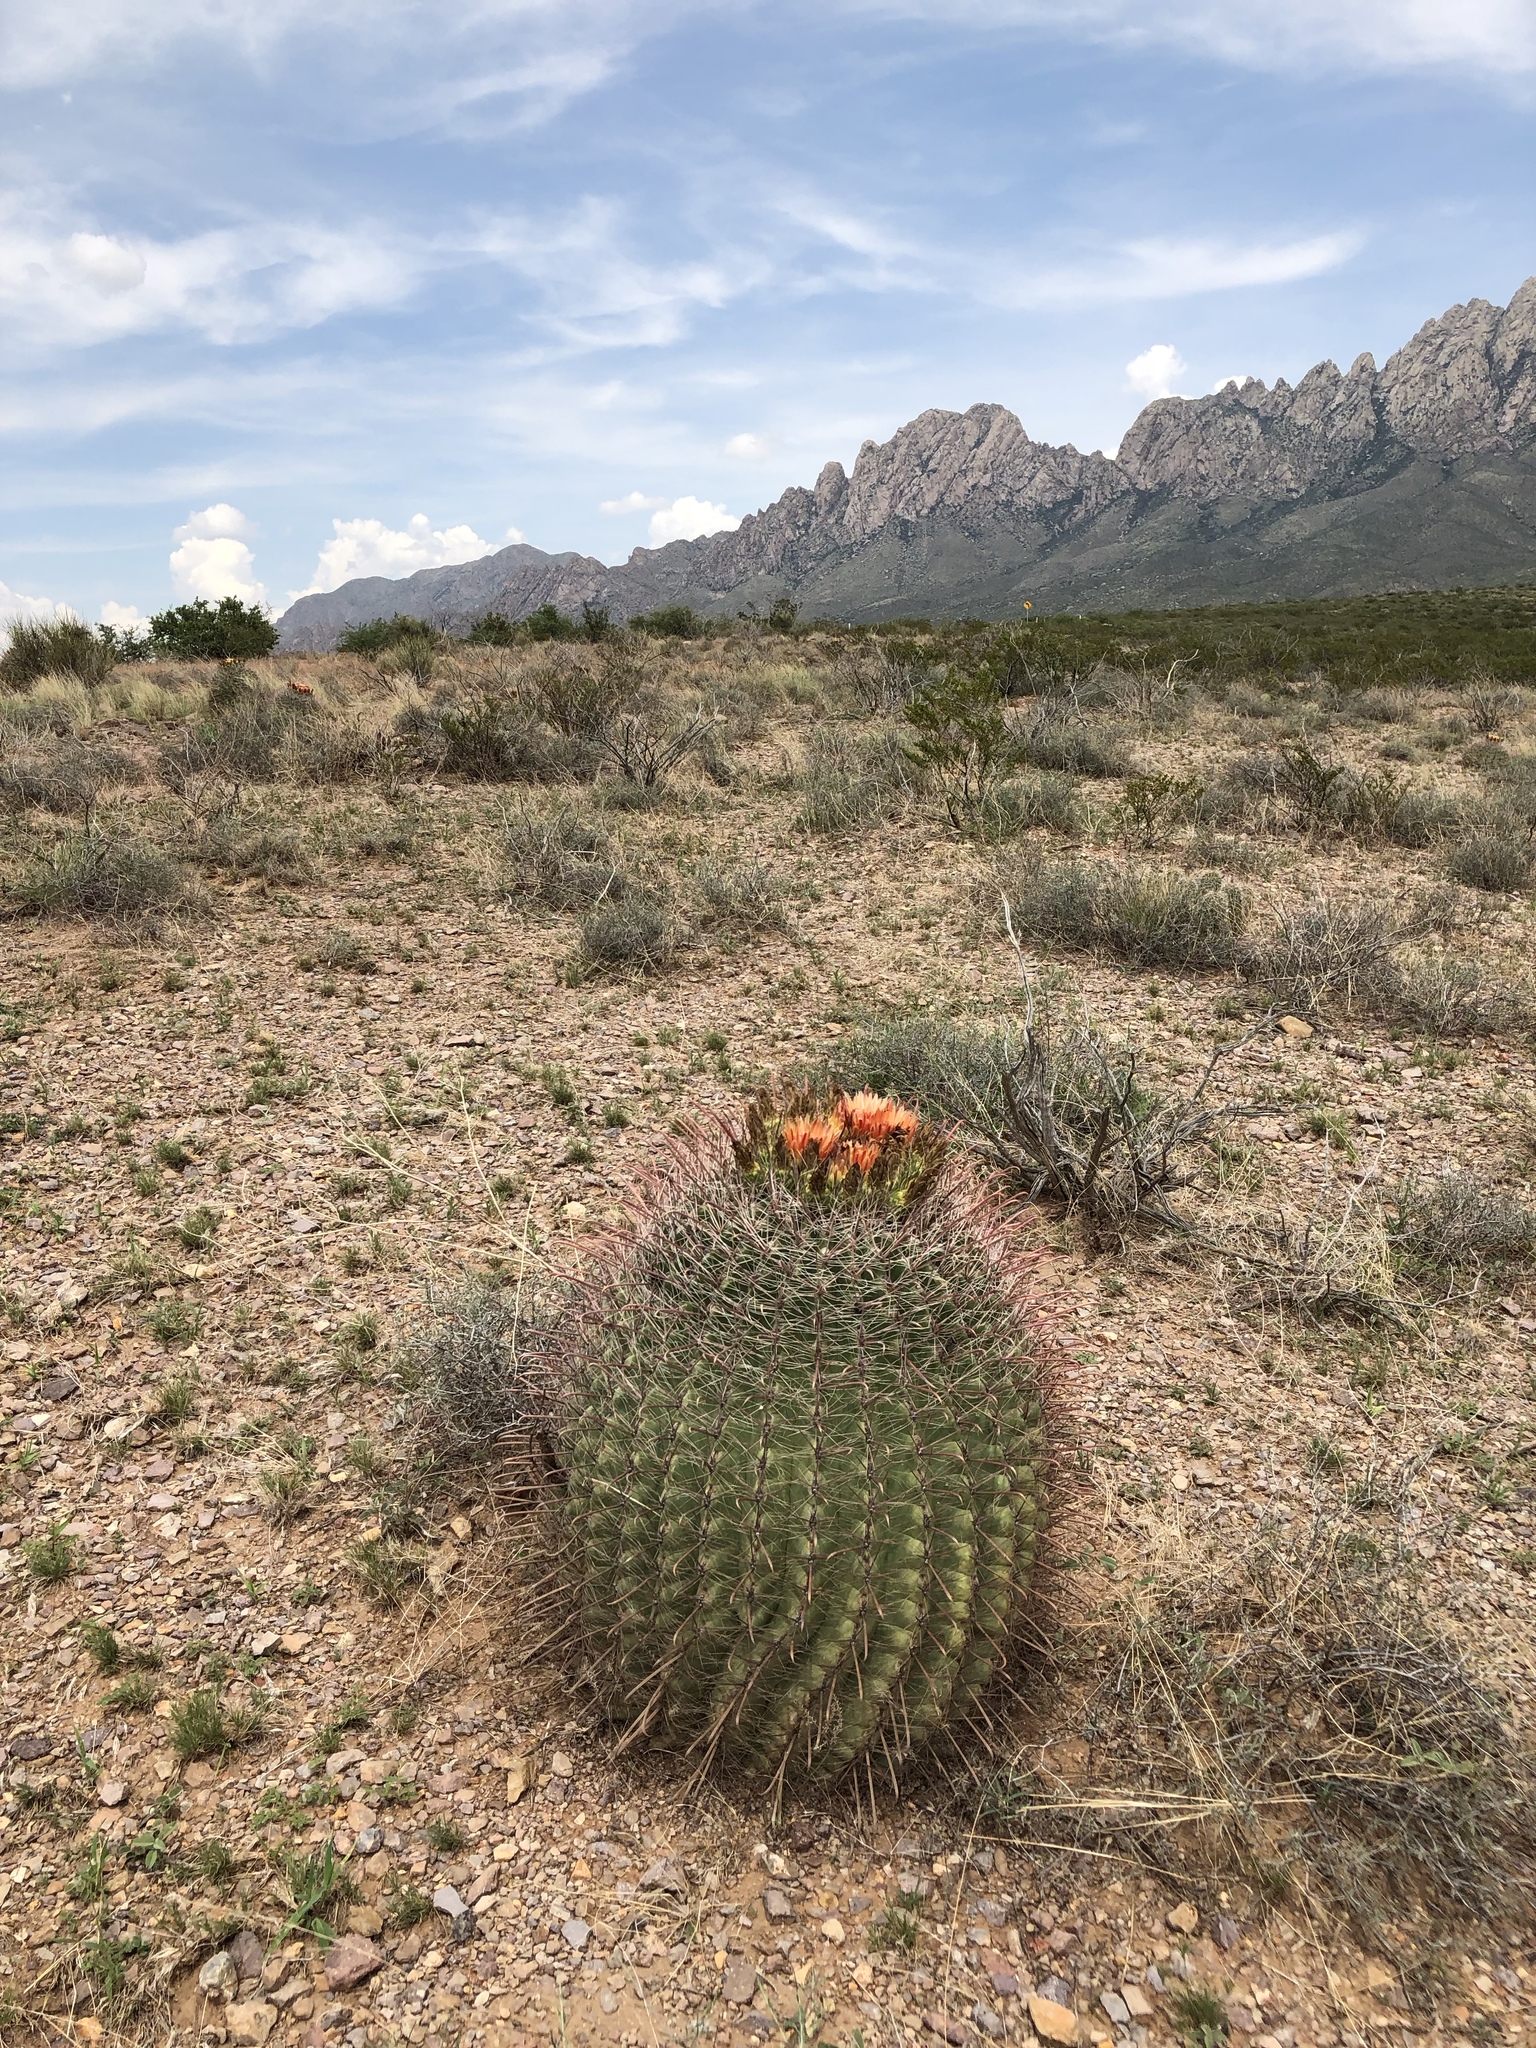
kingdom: Plantae
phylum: Tracheophyta
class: Magnoliopsida
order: Caryophyllales
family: Cactaceae
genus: Ferocactus
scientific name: Ferocactus wislizeni
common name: Candy barrel cactus
